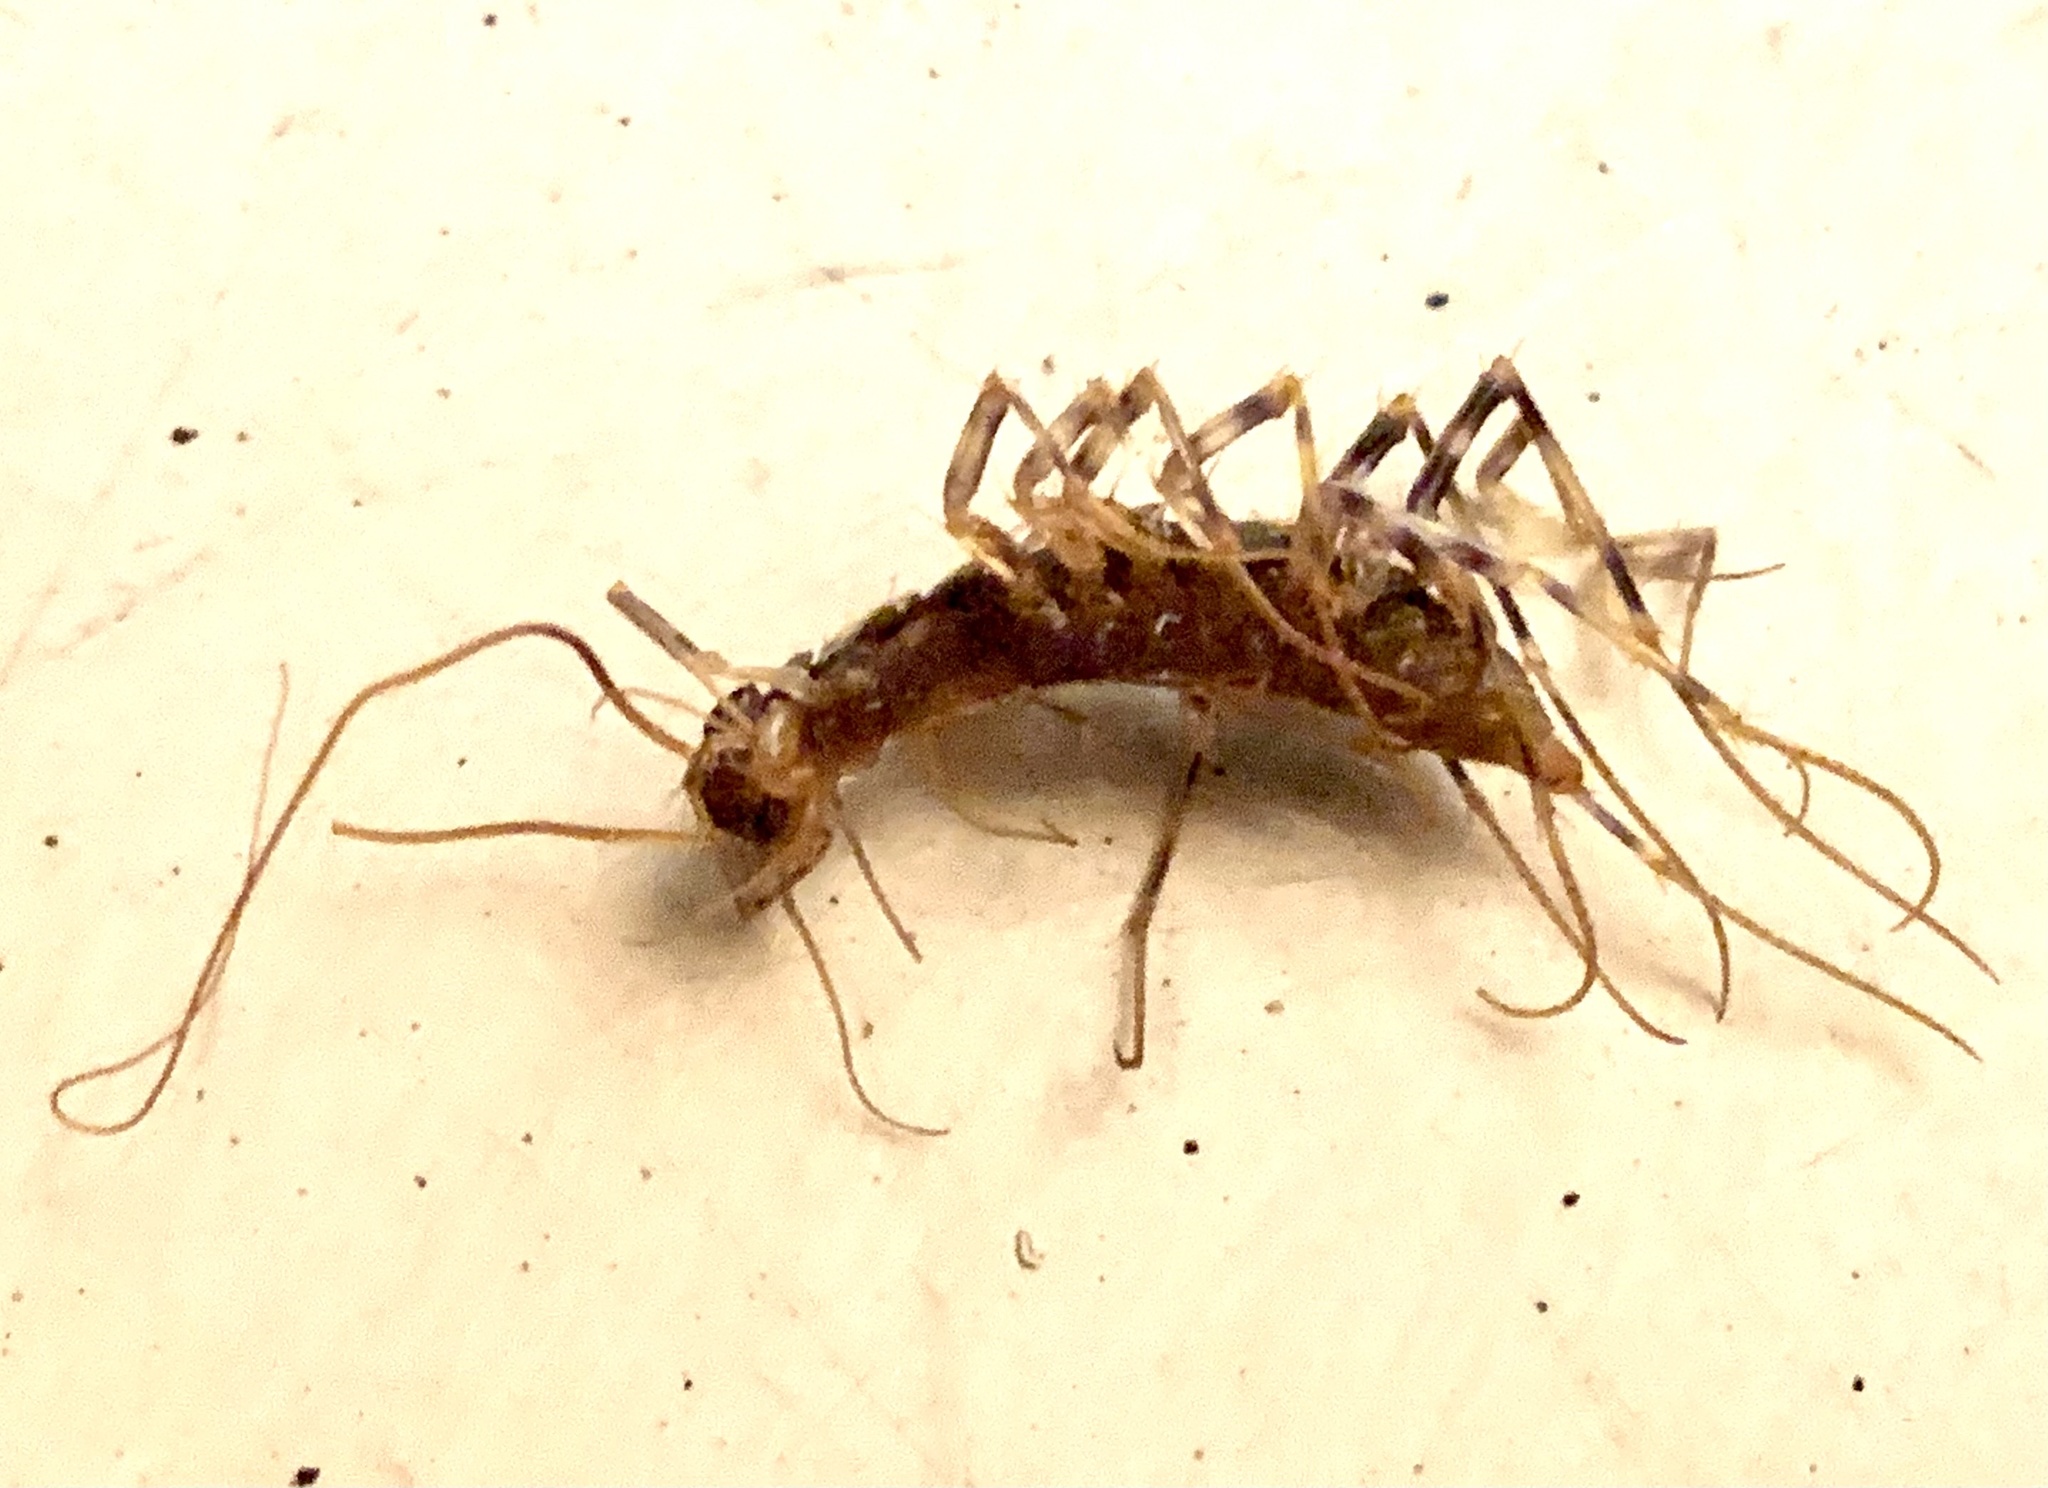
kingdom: Animalia
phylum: Arthropoda
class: Chilopoda
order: Scutigeromorpha
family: Scutigeridae
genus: Scutigera
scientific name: Scutigera coleoptrata
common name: House centipede
